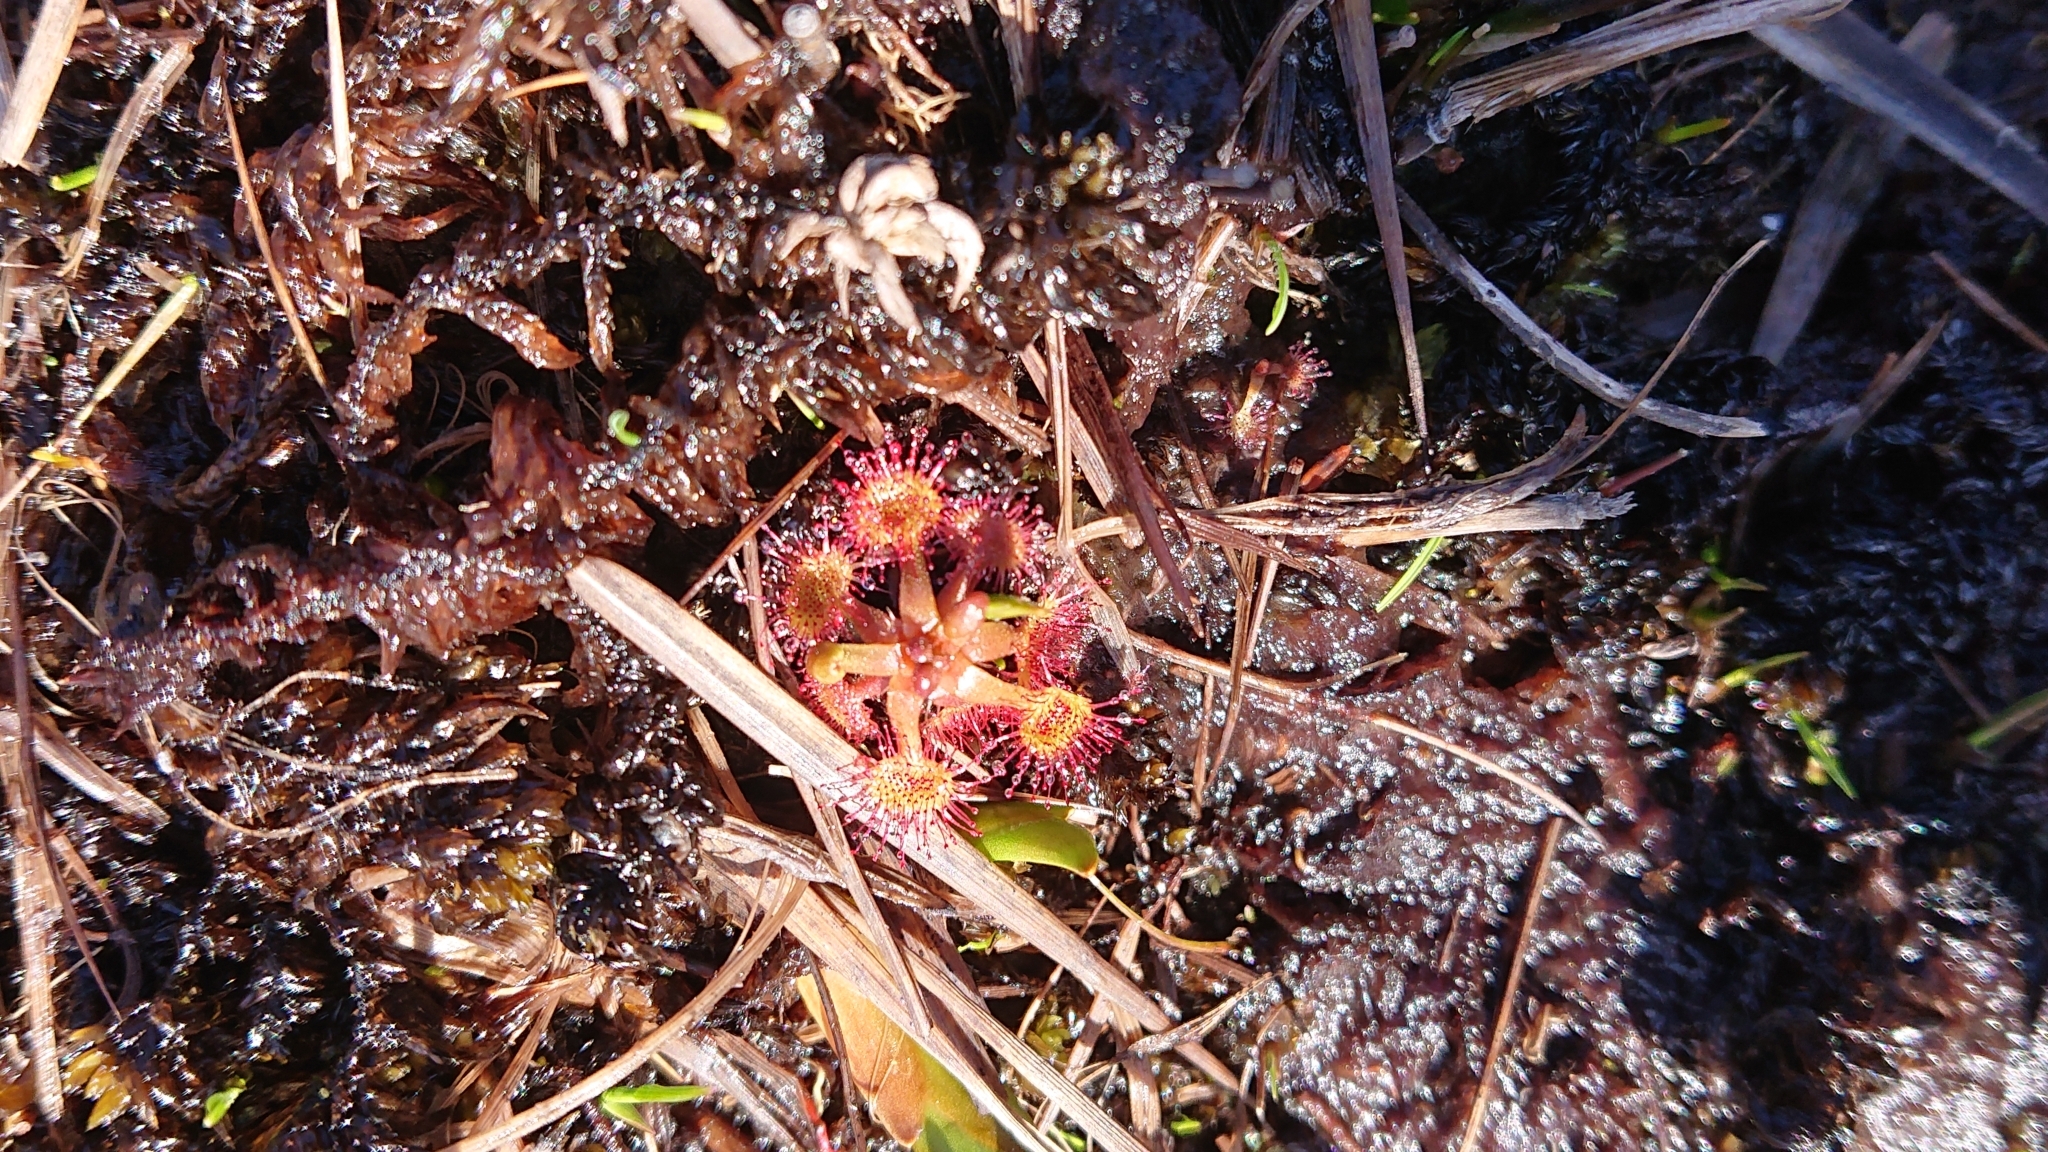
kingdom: Plantae
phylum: Tracheophyta
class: Magnoliopsida
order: Caryophyllales
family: Droseraceae
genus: Drosera
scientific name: Drosera rotundifolia
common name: Round-leaved sundew
